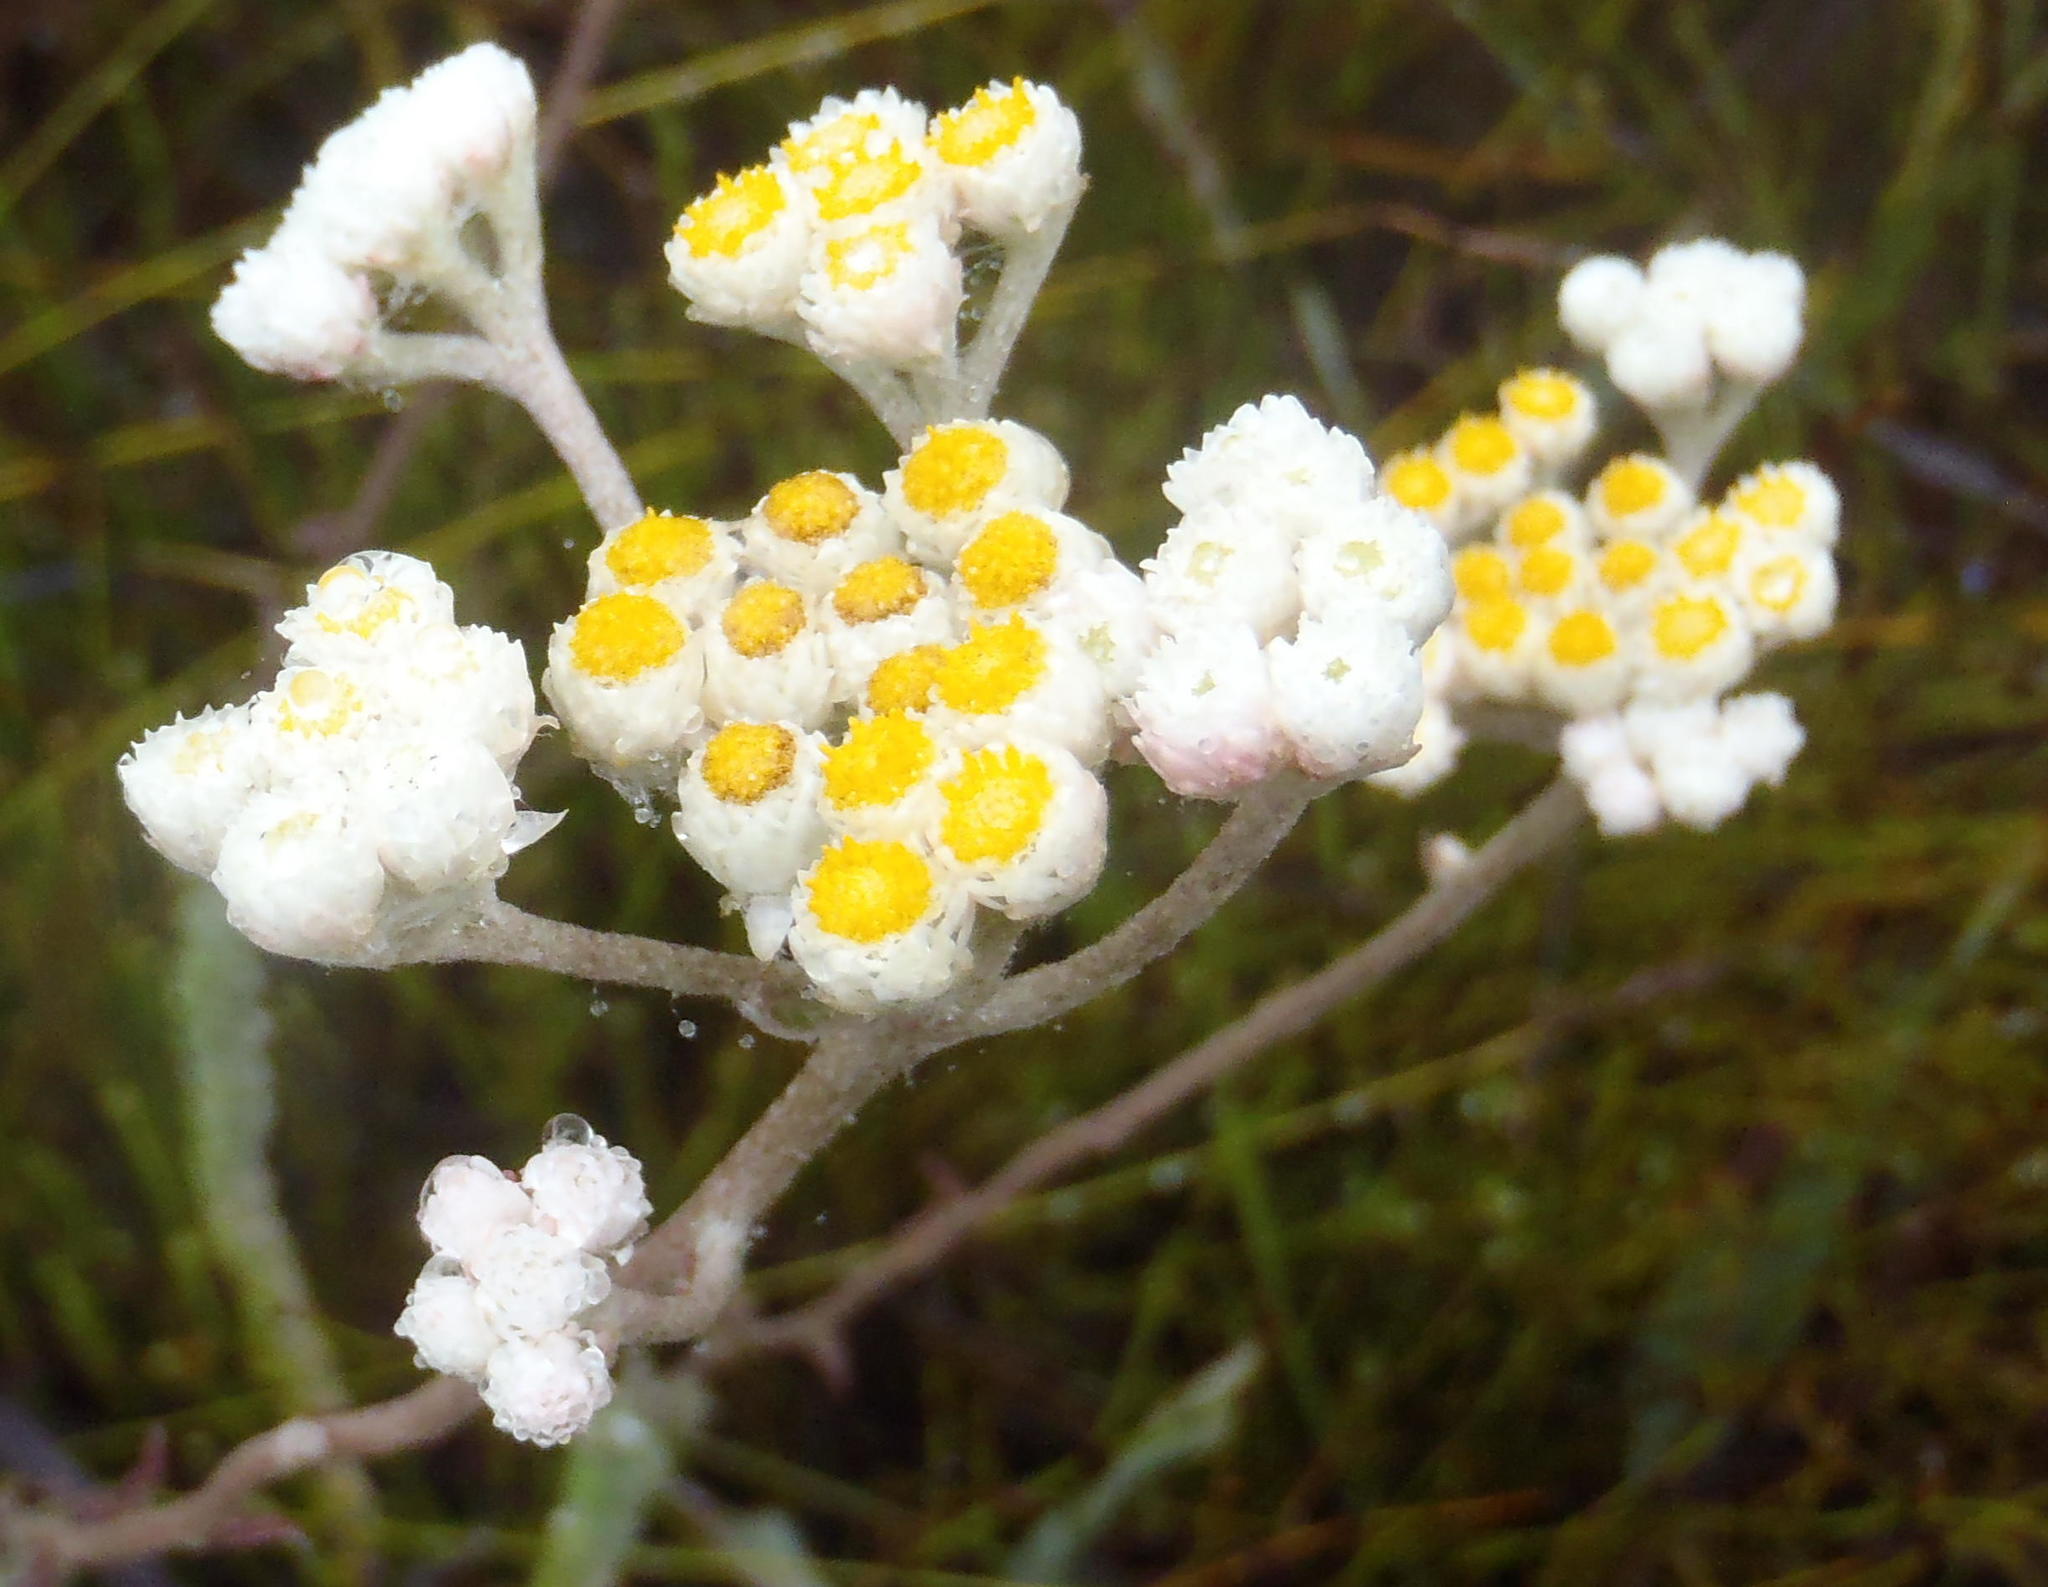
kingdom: Plantae
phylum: Tracheophyta
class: Magnoliopsida
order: Asterales
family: Asteraceae
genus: Helichrysum
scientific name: Helichrysum felinum
